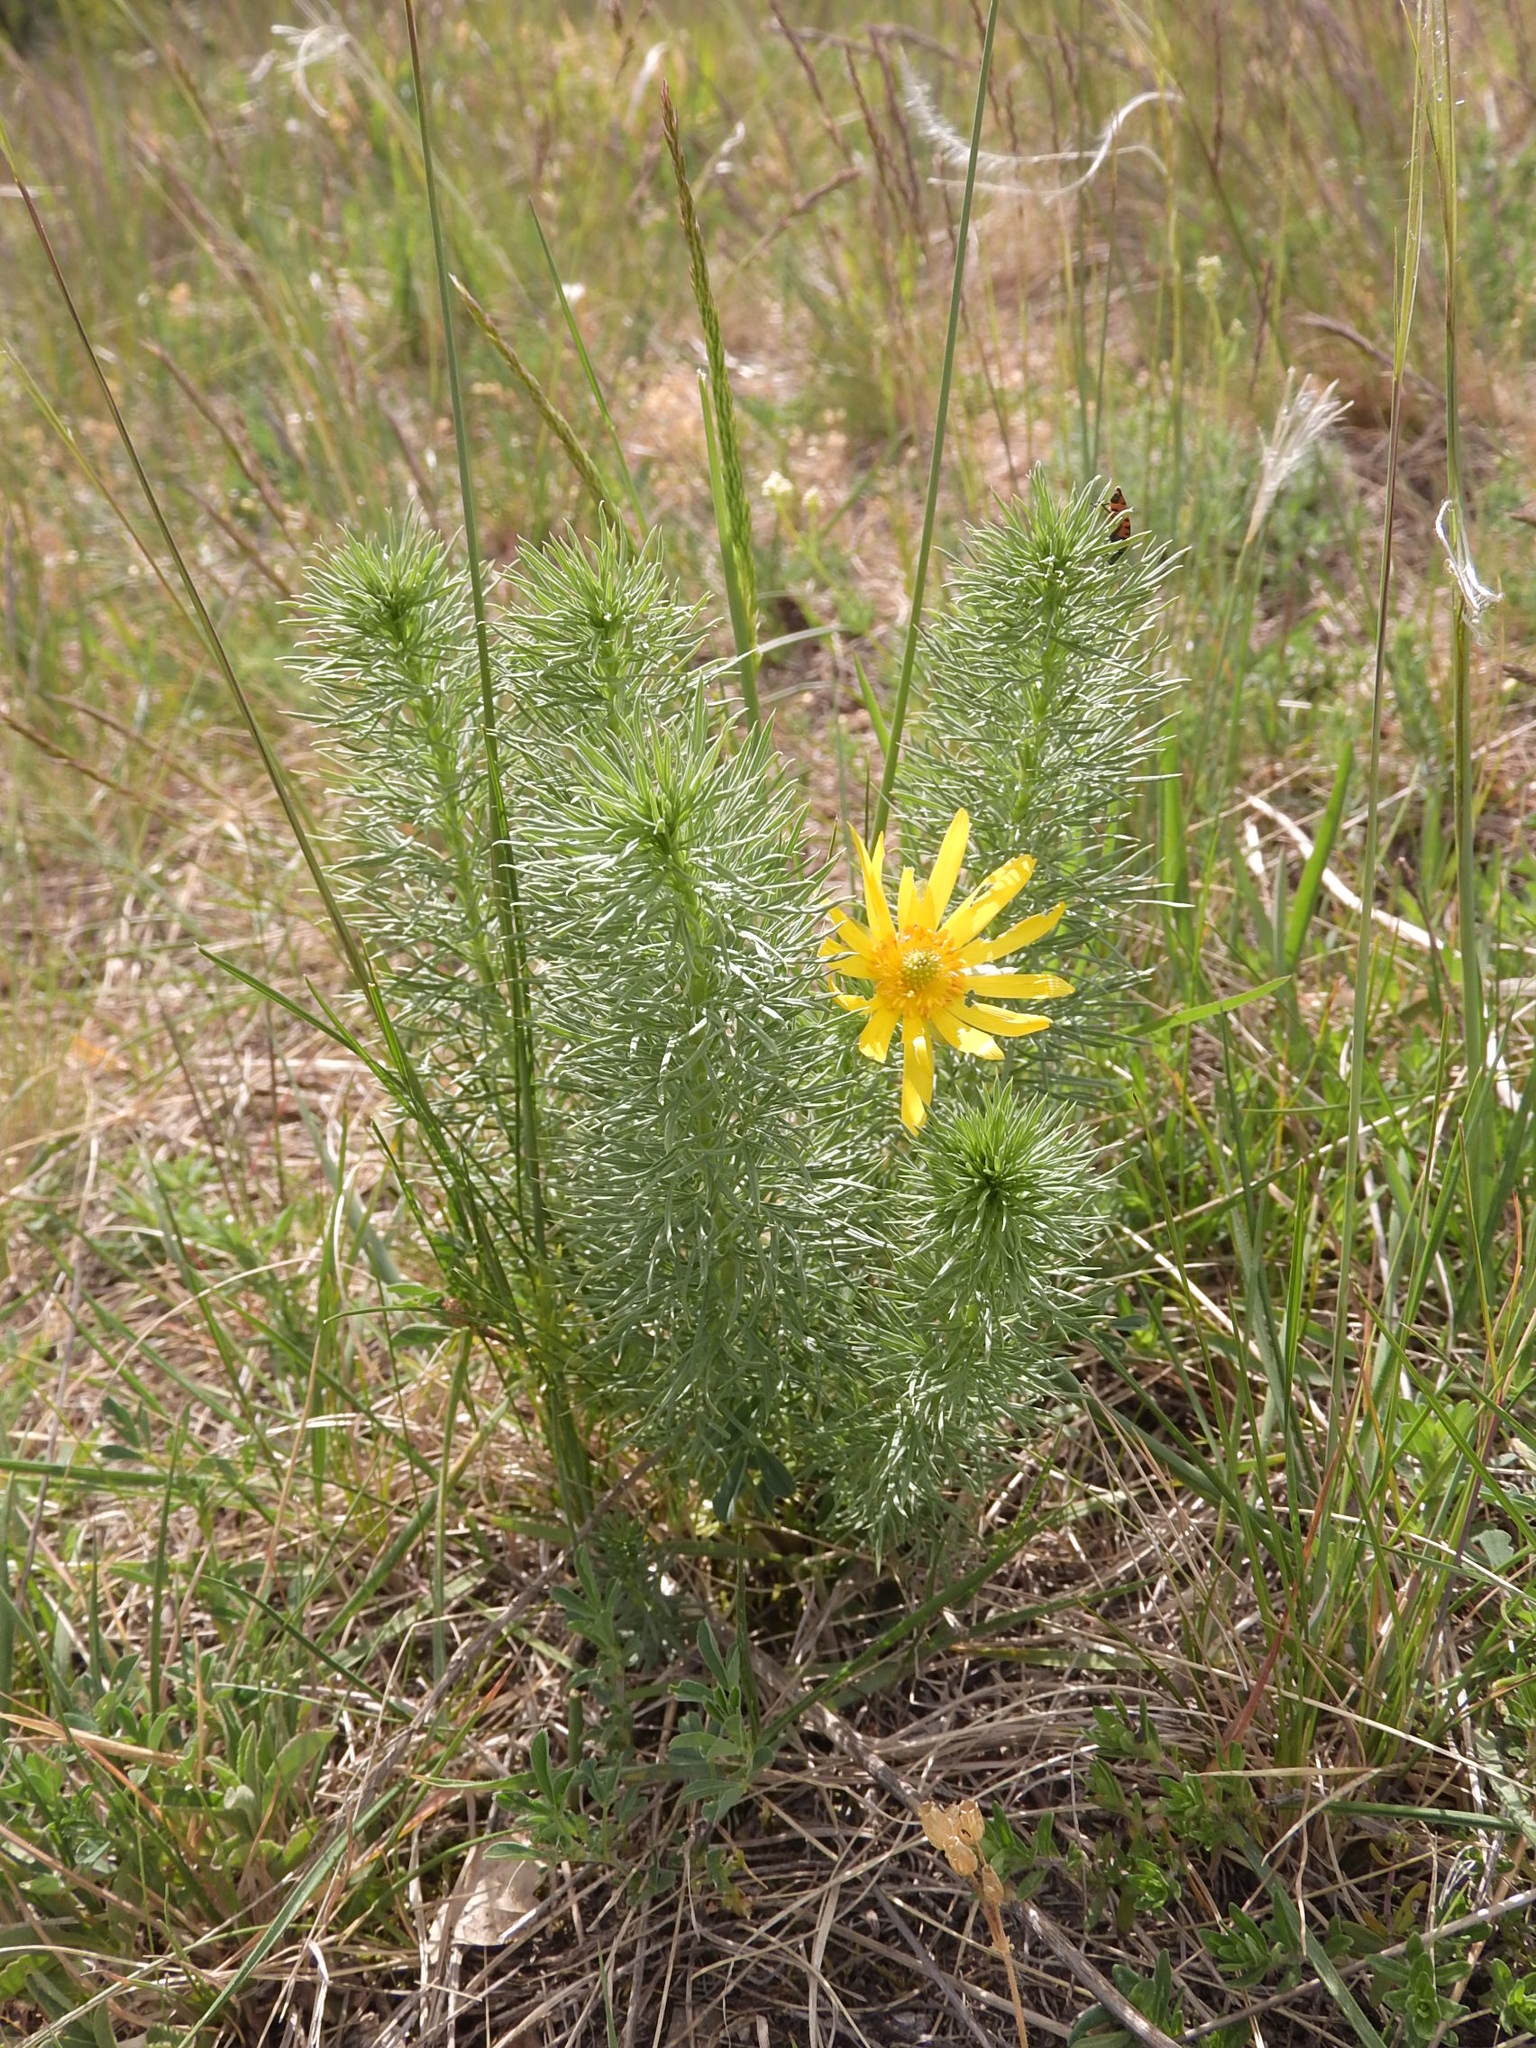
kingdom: Plantae
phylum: Tracheophyta
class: Magnoliopsida
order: Ranunculales
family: Ranunculaceae
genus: Adonis
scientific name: Adonis vernalis
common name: Yellow pheasants-eye
